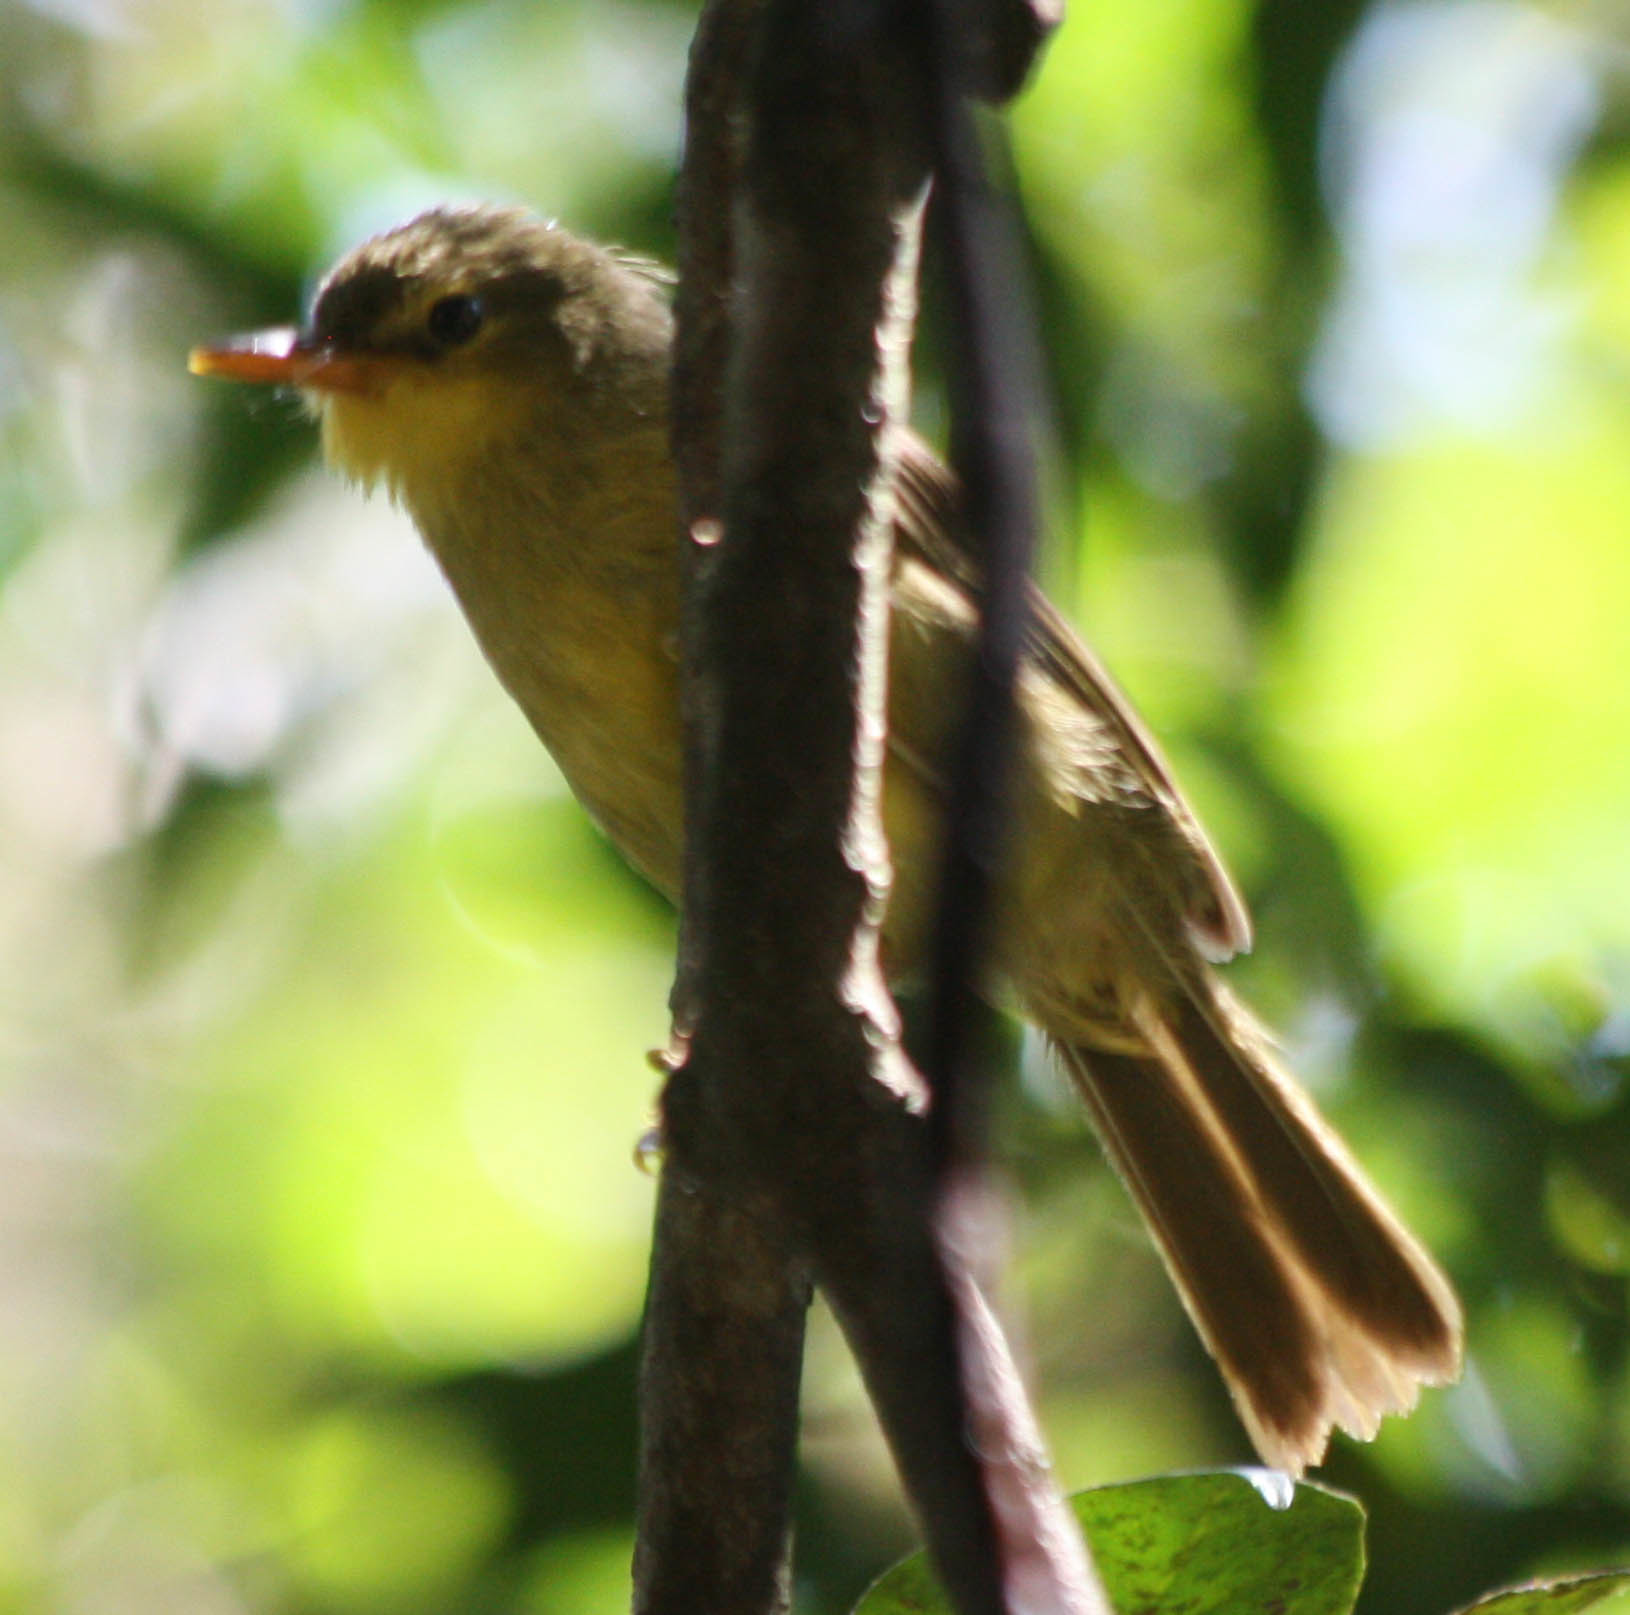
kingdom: Animalia
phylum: Chordata
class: Aves
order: Passeriformes
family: Bernieridae
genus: Xanthomixis
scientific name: Xanthomixis zosterops
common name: Spectacled tetraka
